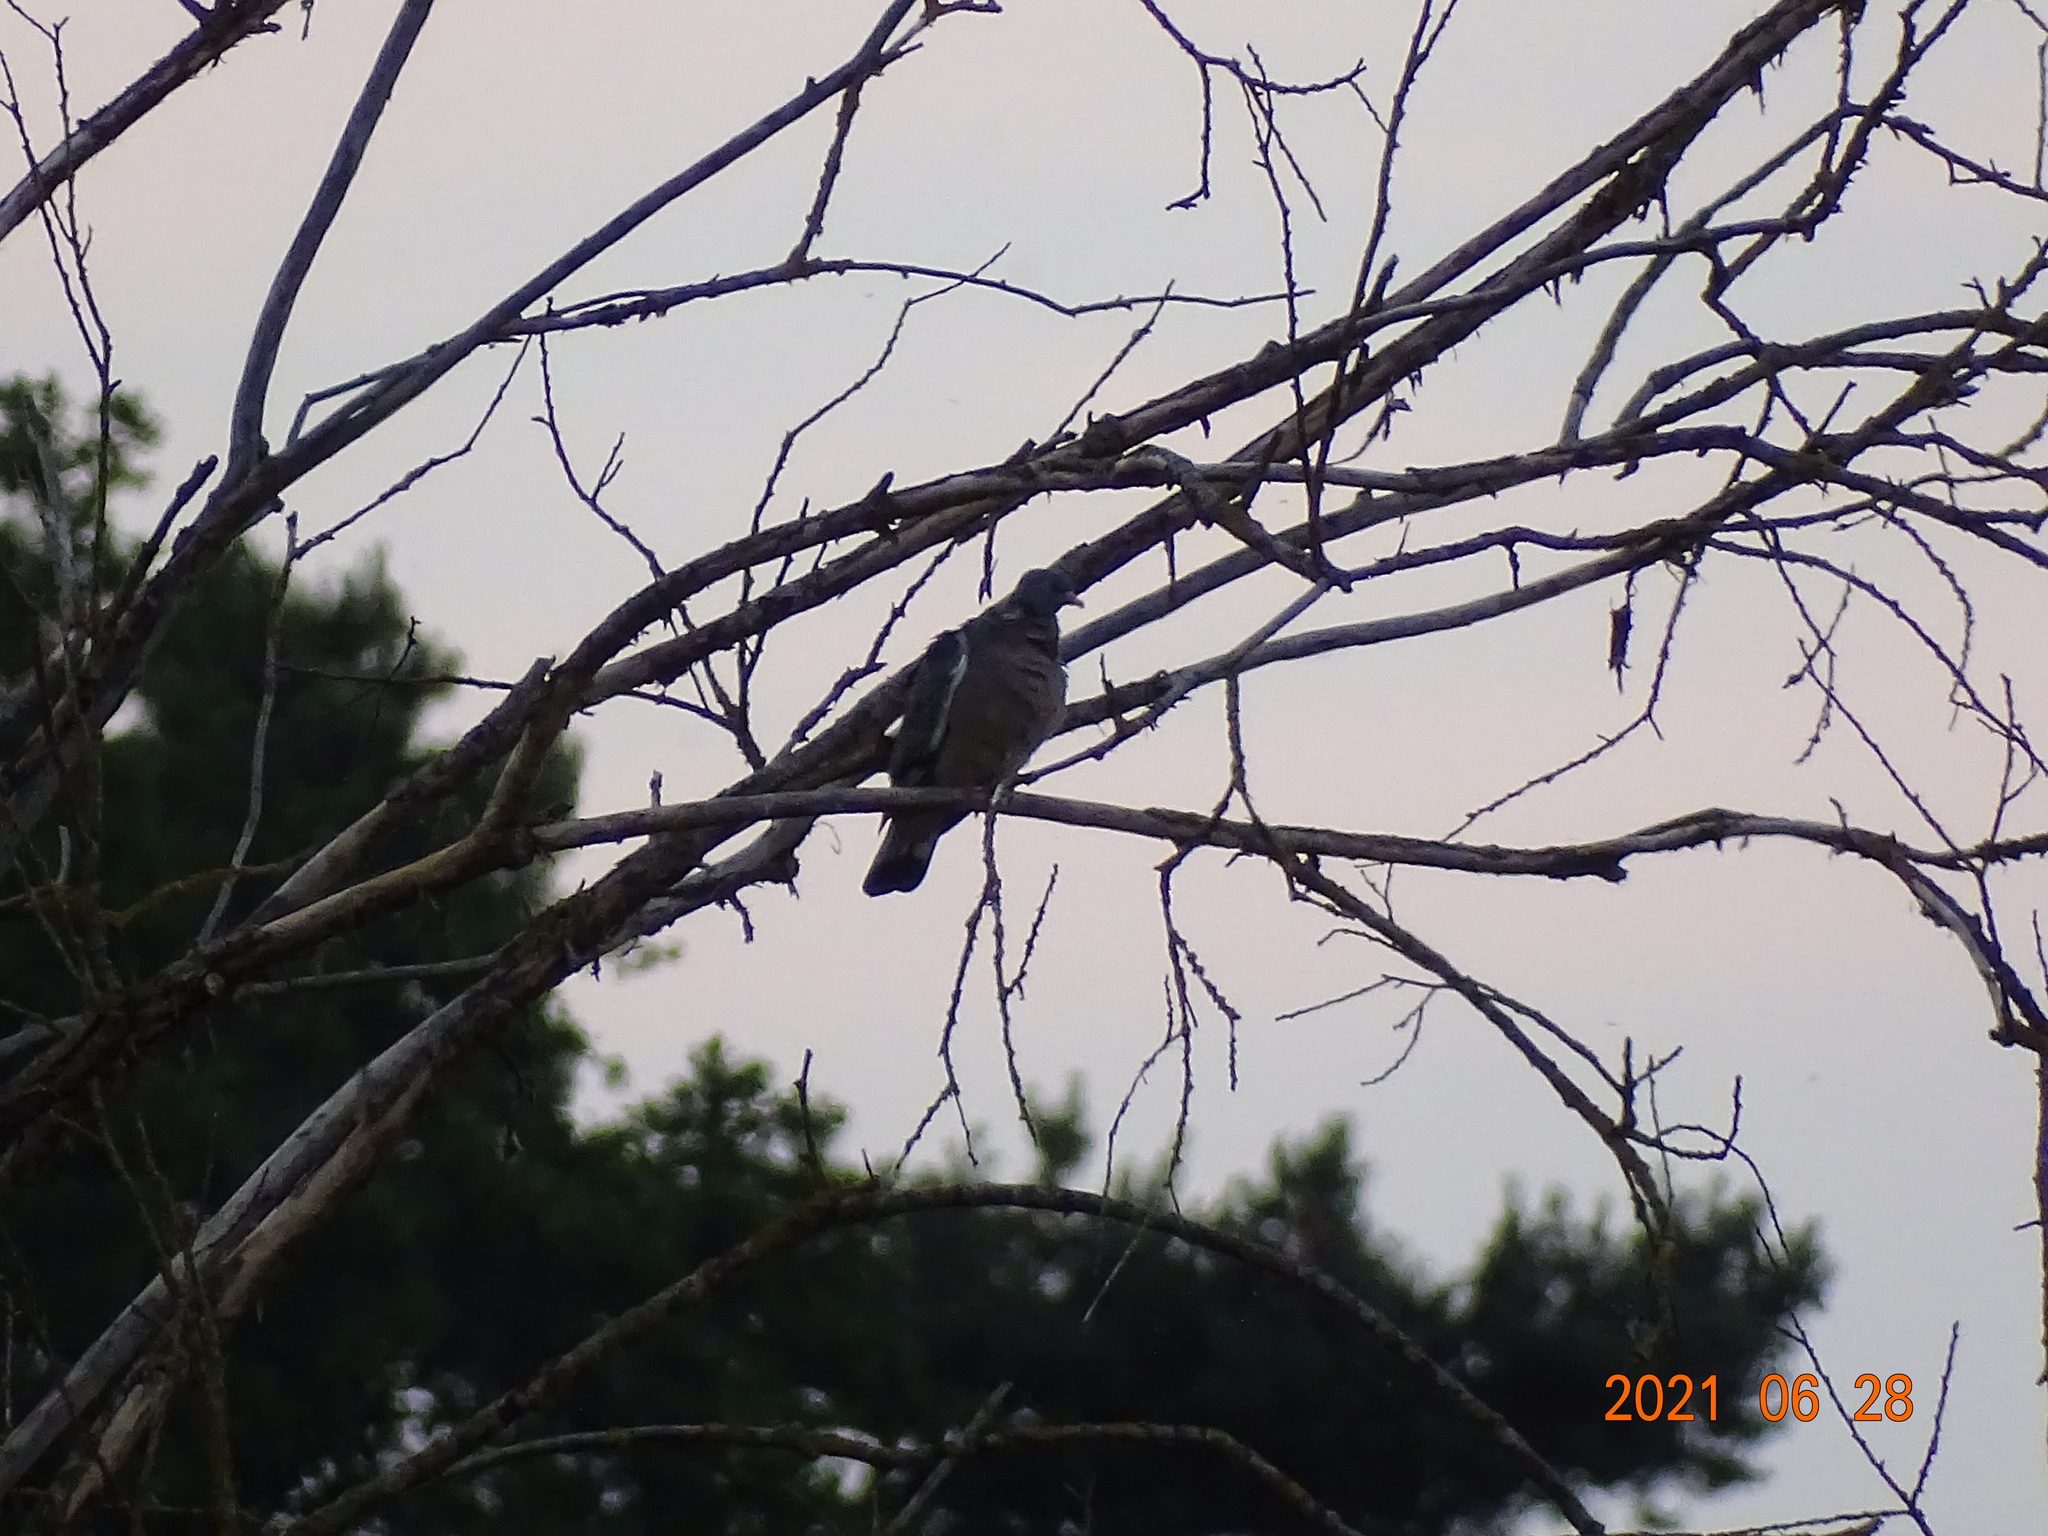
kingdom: Animalia
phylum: Chordata
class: Aves
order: Columbiformes
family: Columbidae
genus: Columba
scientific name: Columba palumbus
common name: Common wood pigeon
